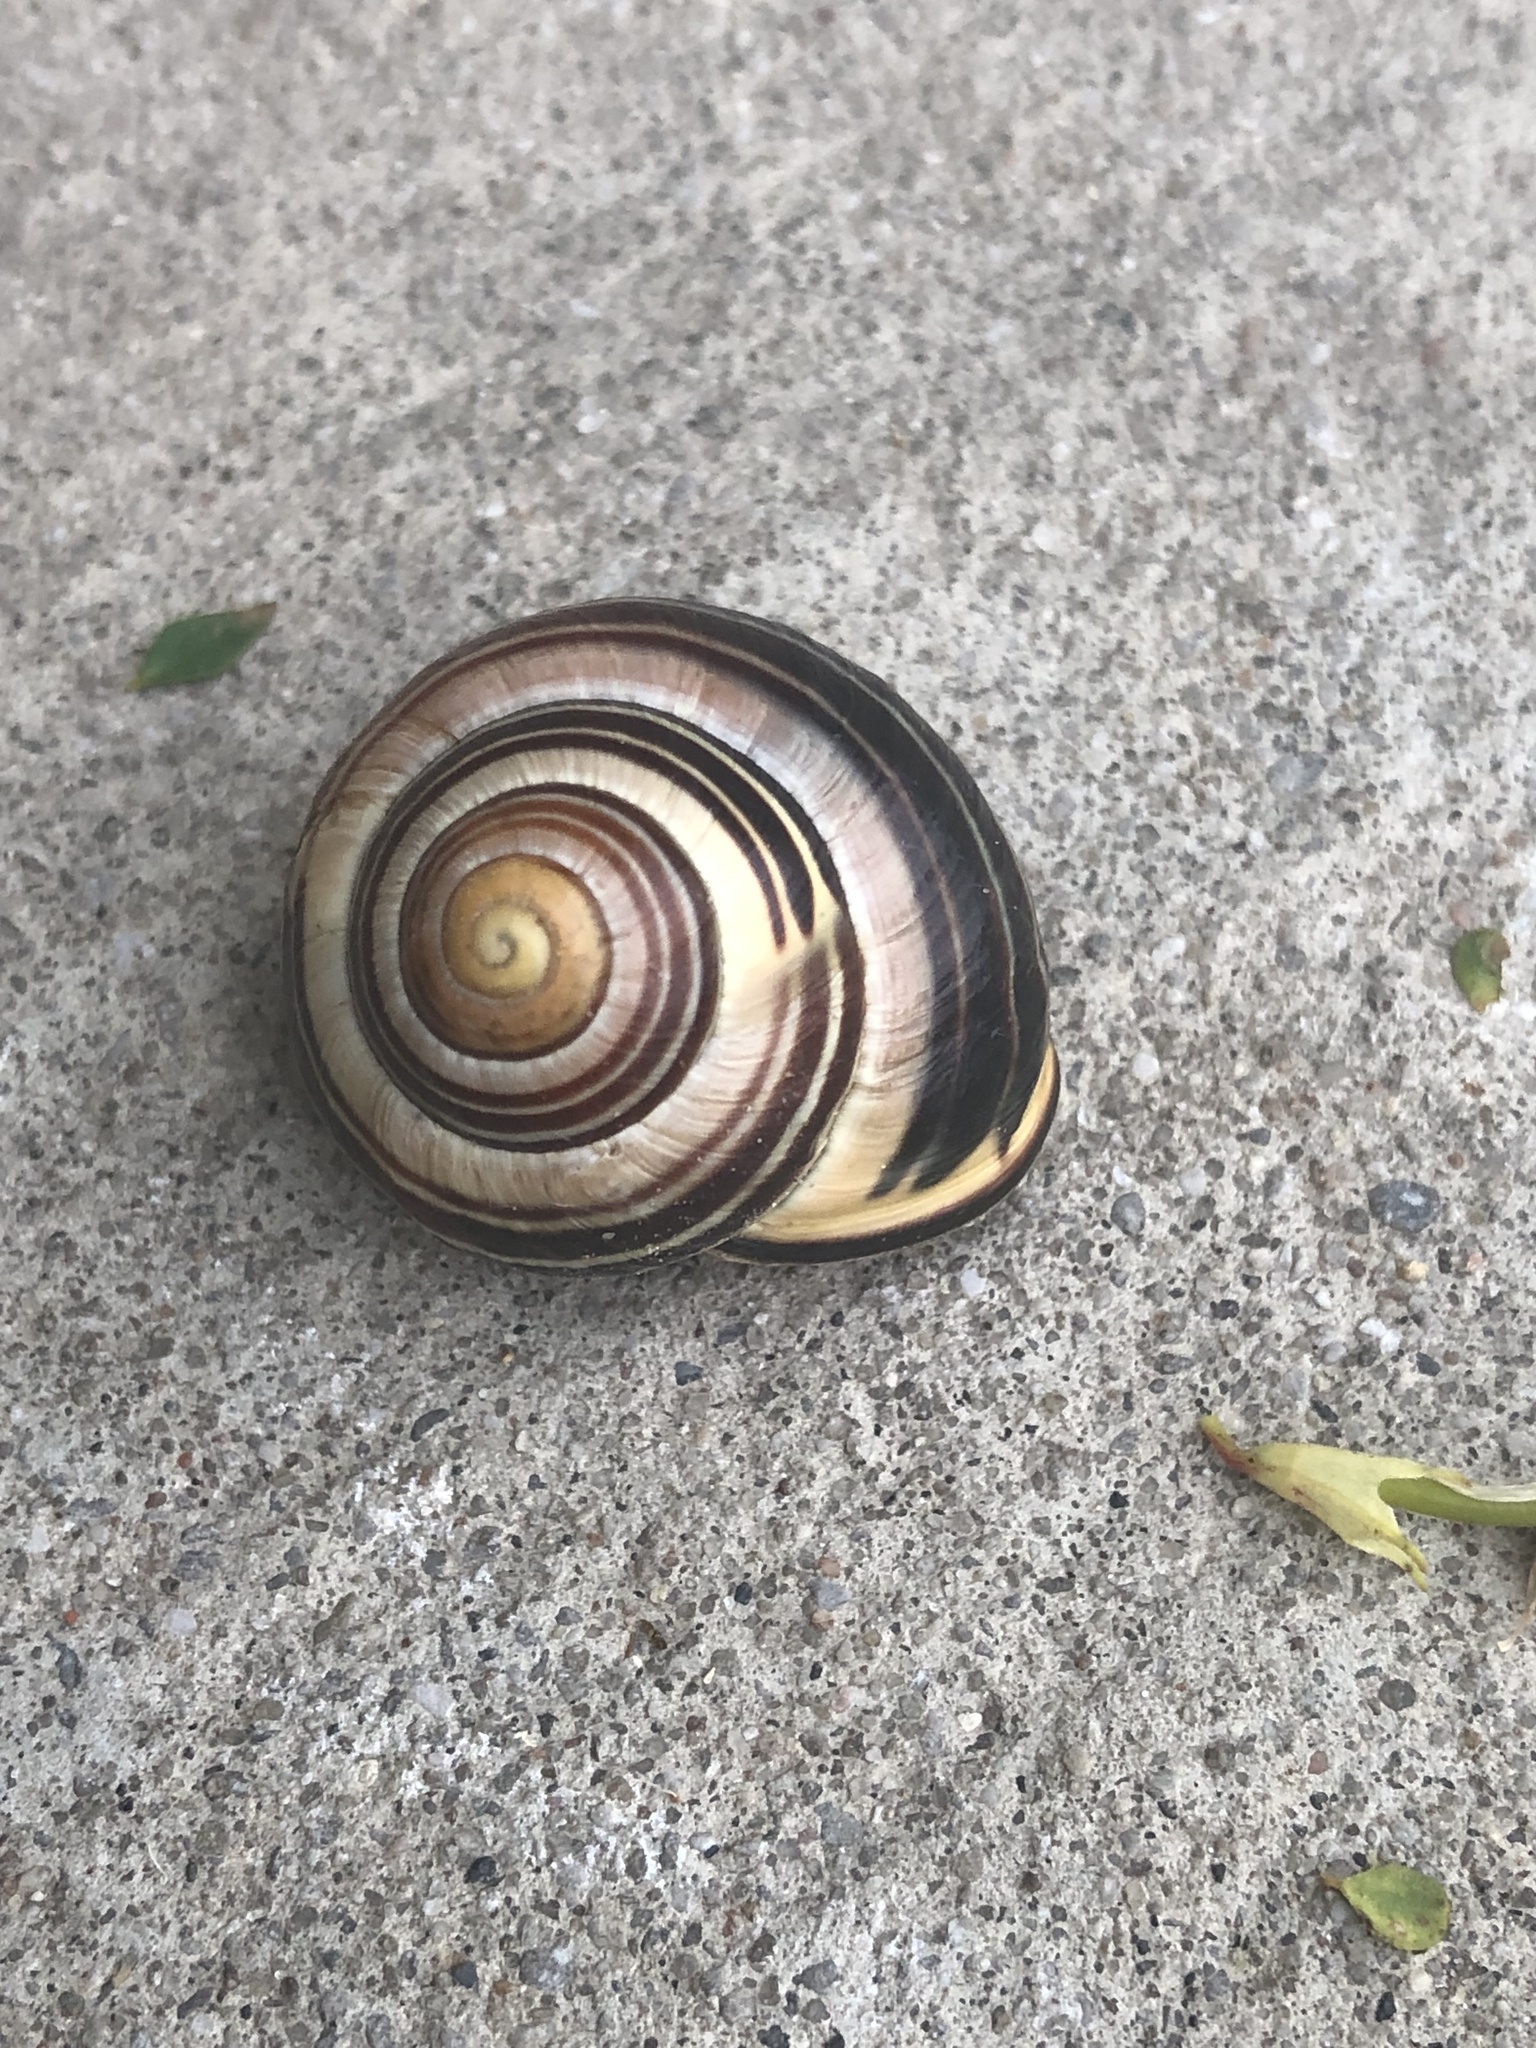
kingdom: Animalia
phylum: Mollusca
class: Gastropoda
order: Stylommatophora
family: Helicidae
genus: Cepaea
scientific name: Cepaea nemoralis
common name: Grovesnail
